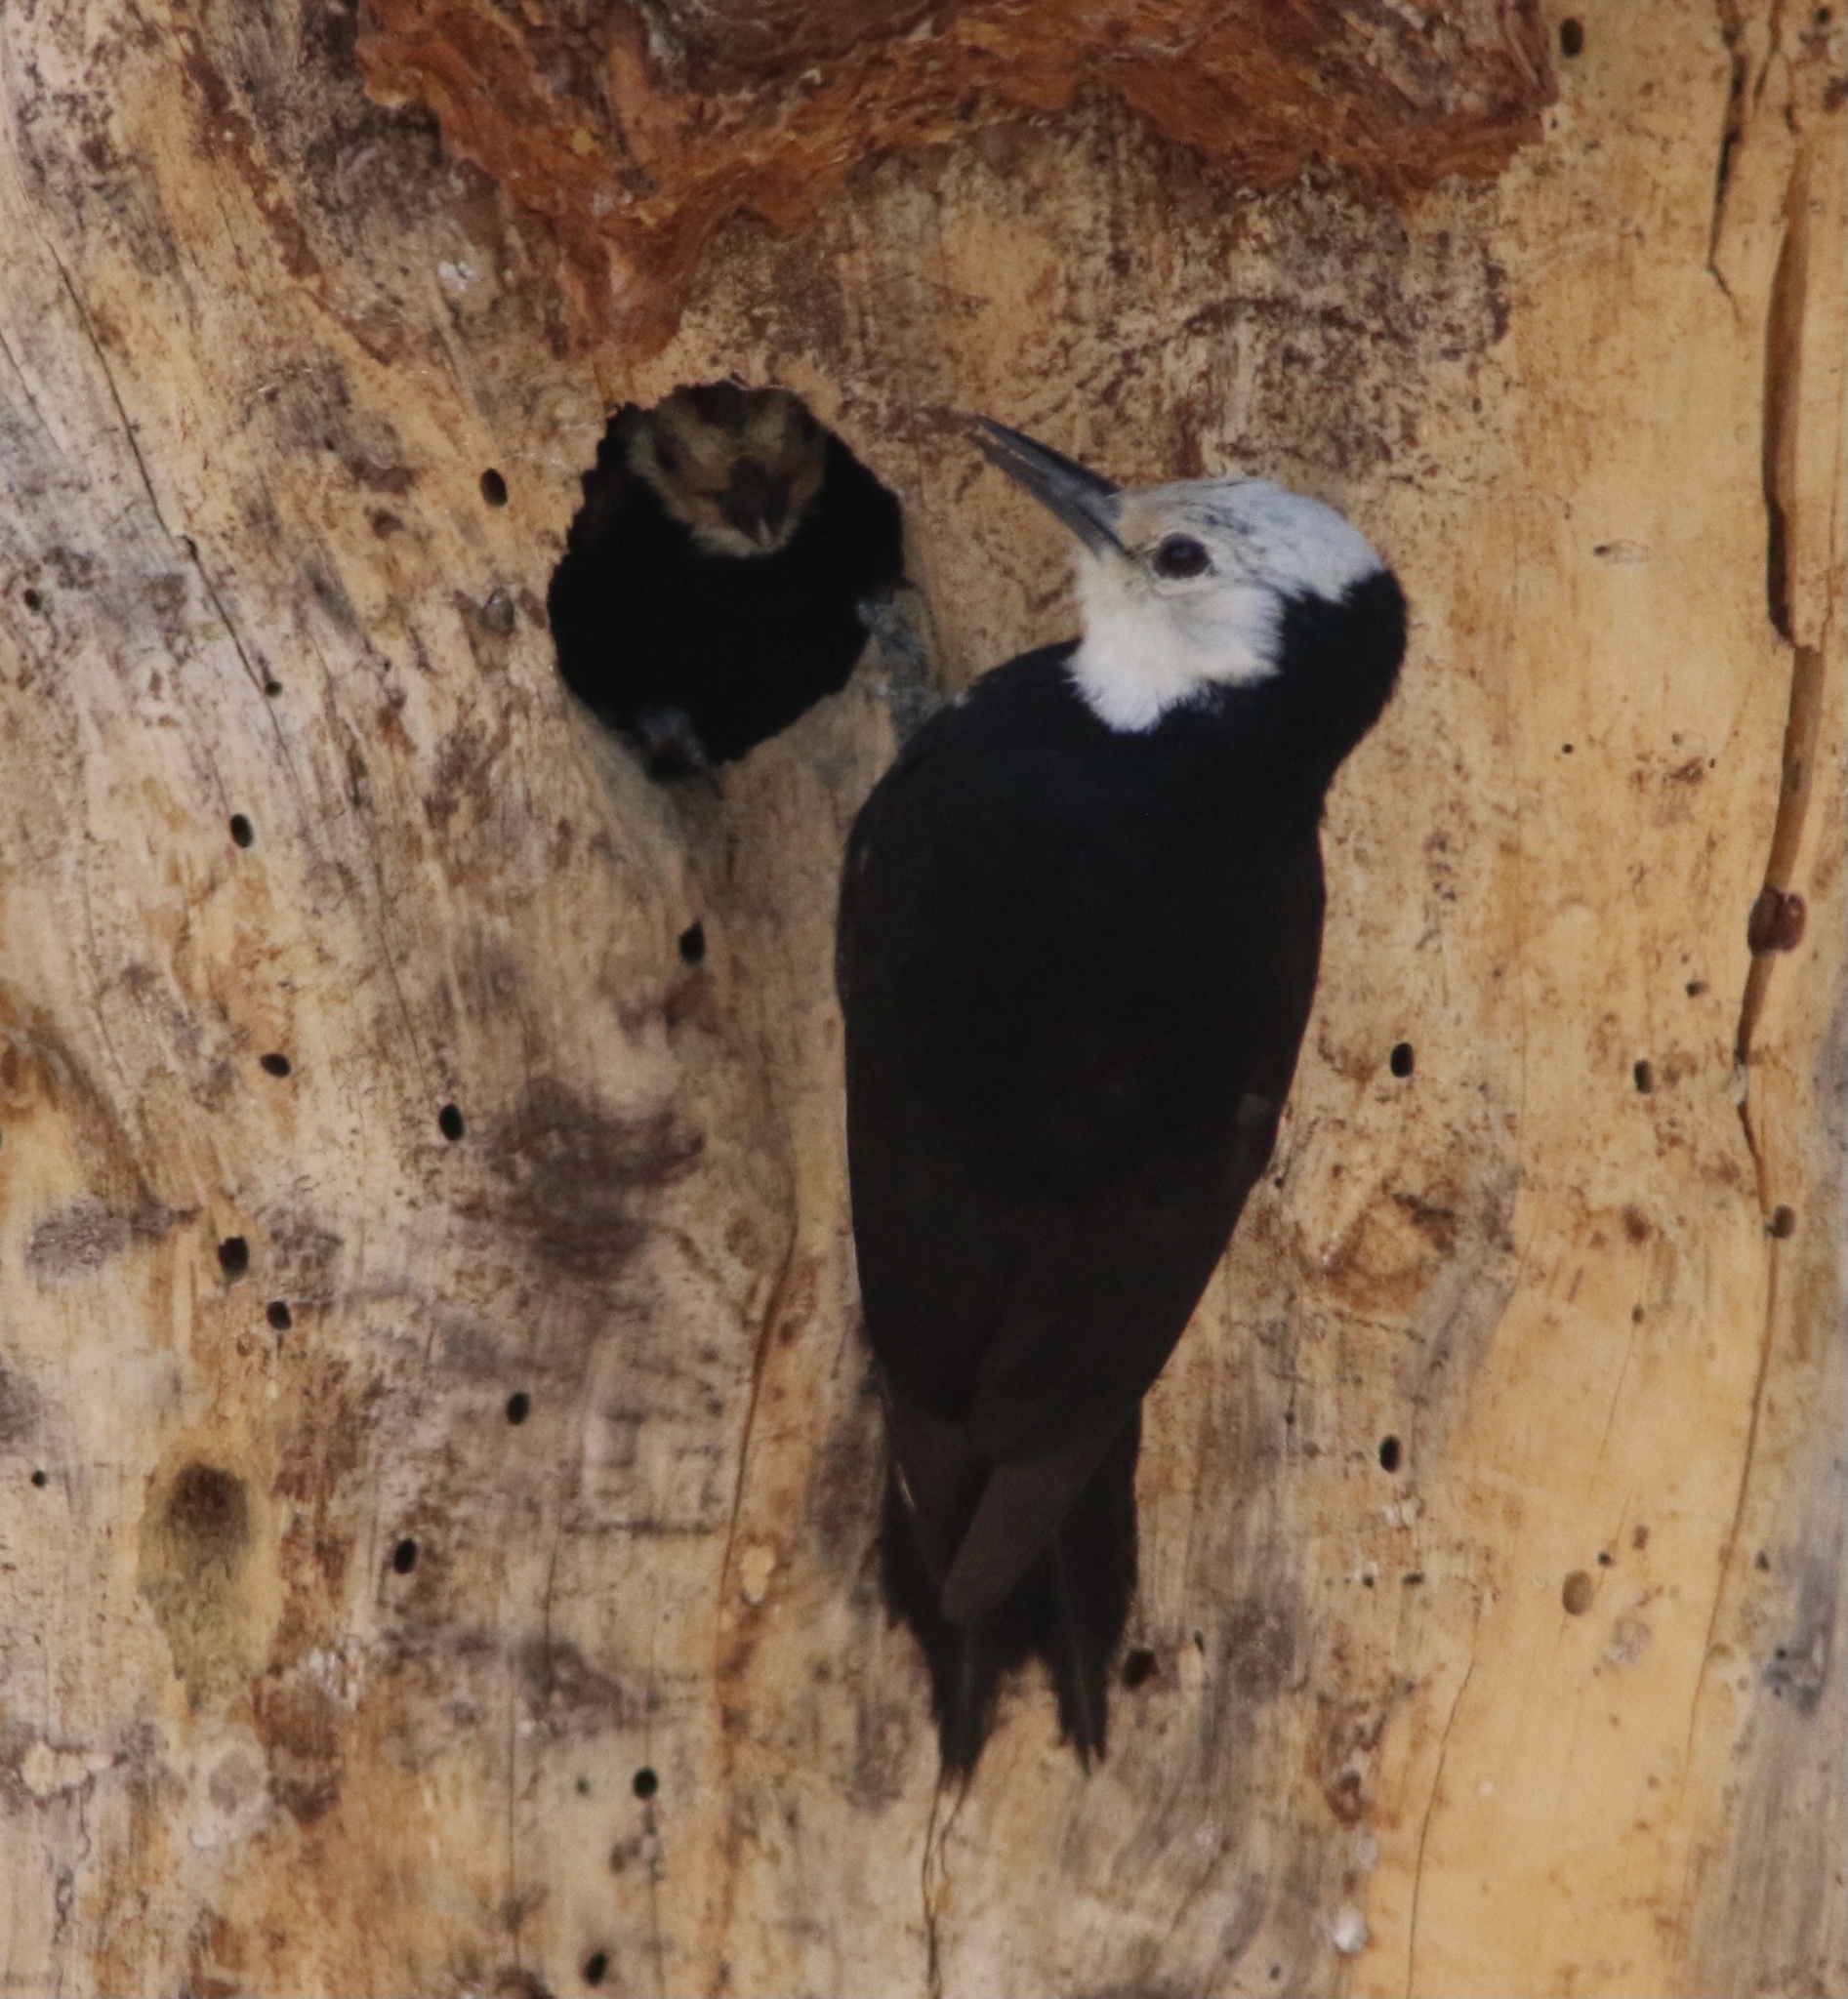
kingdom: Animalia
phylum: Chordata
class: Aves
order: Piciformes
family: Picidae
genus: Leuconotopicus
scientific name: Leuconotopicus albolarvatus
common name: White-headed woodpecker
